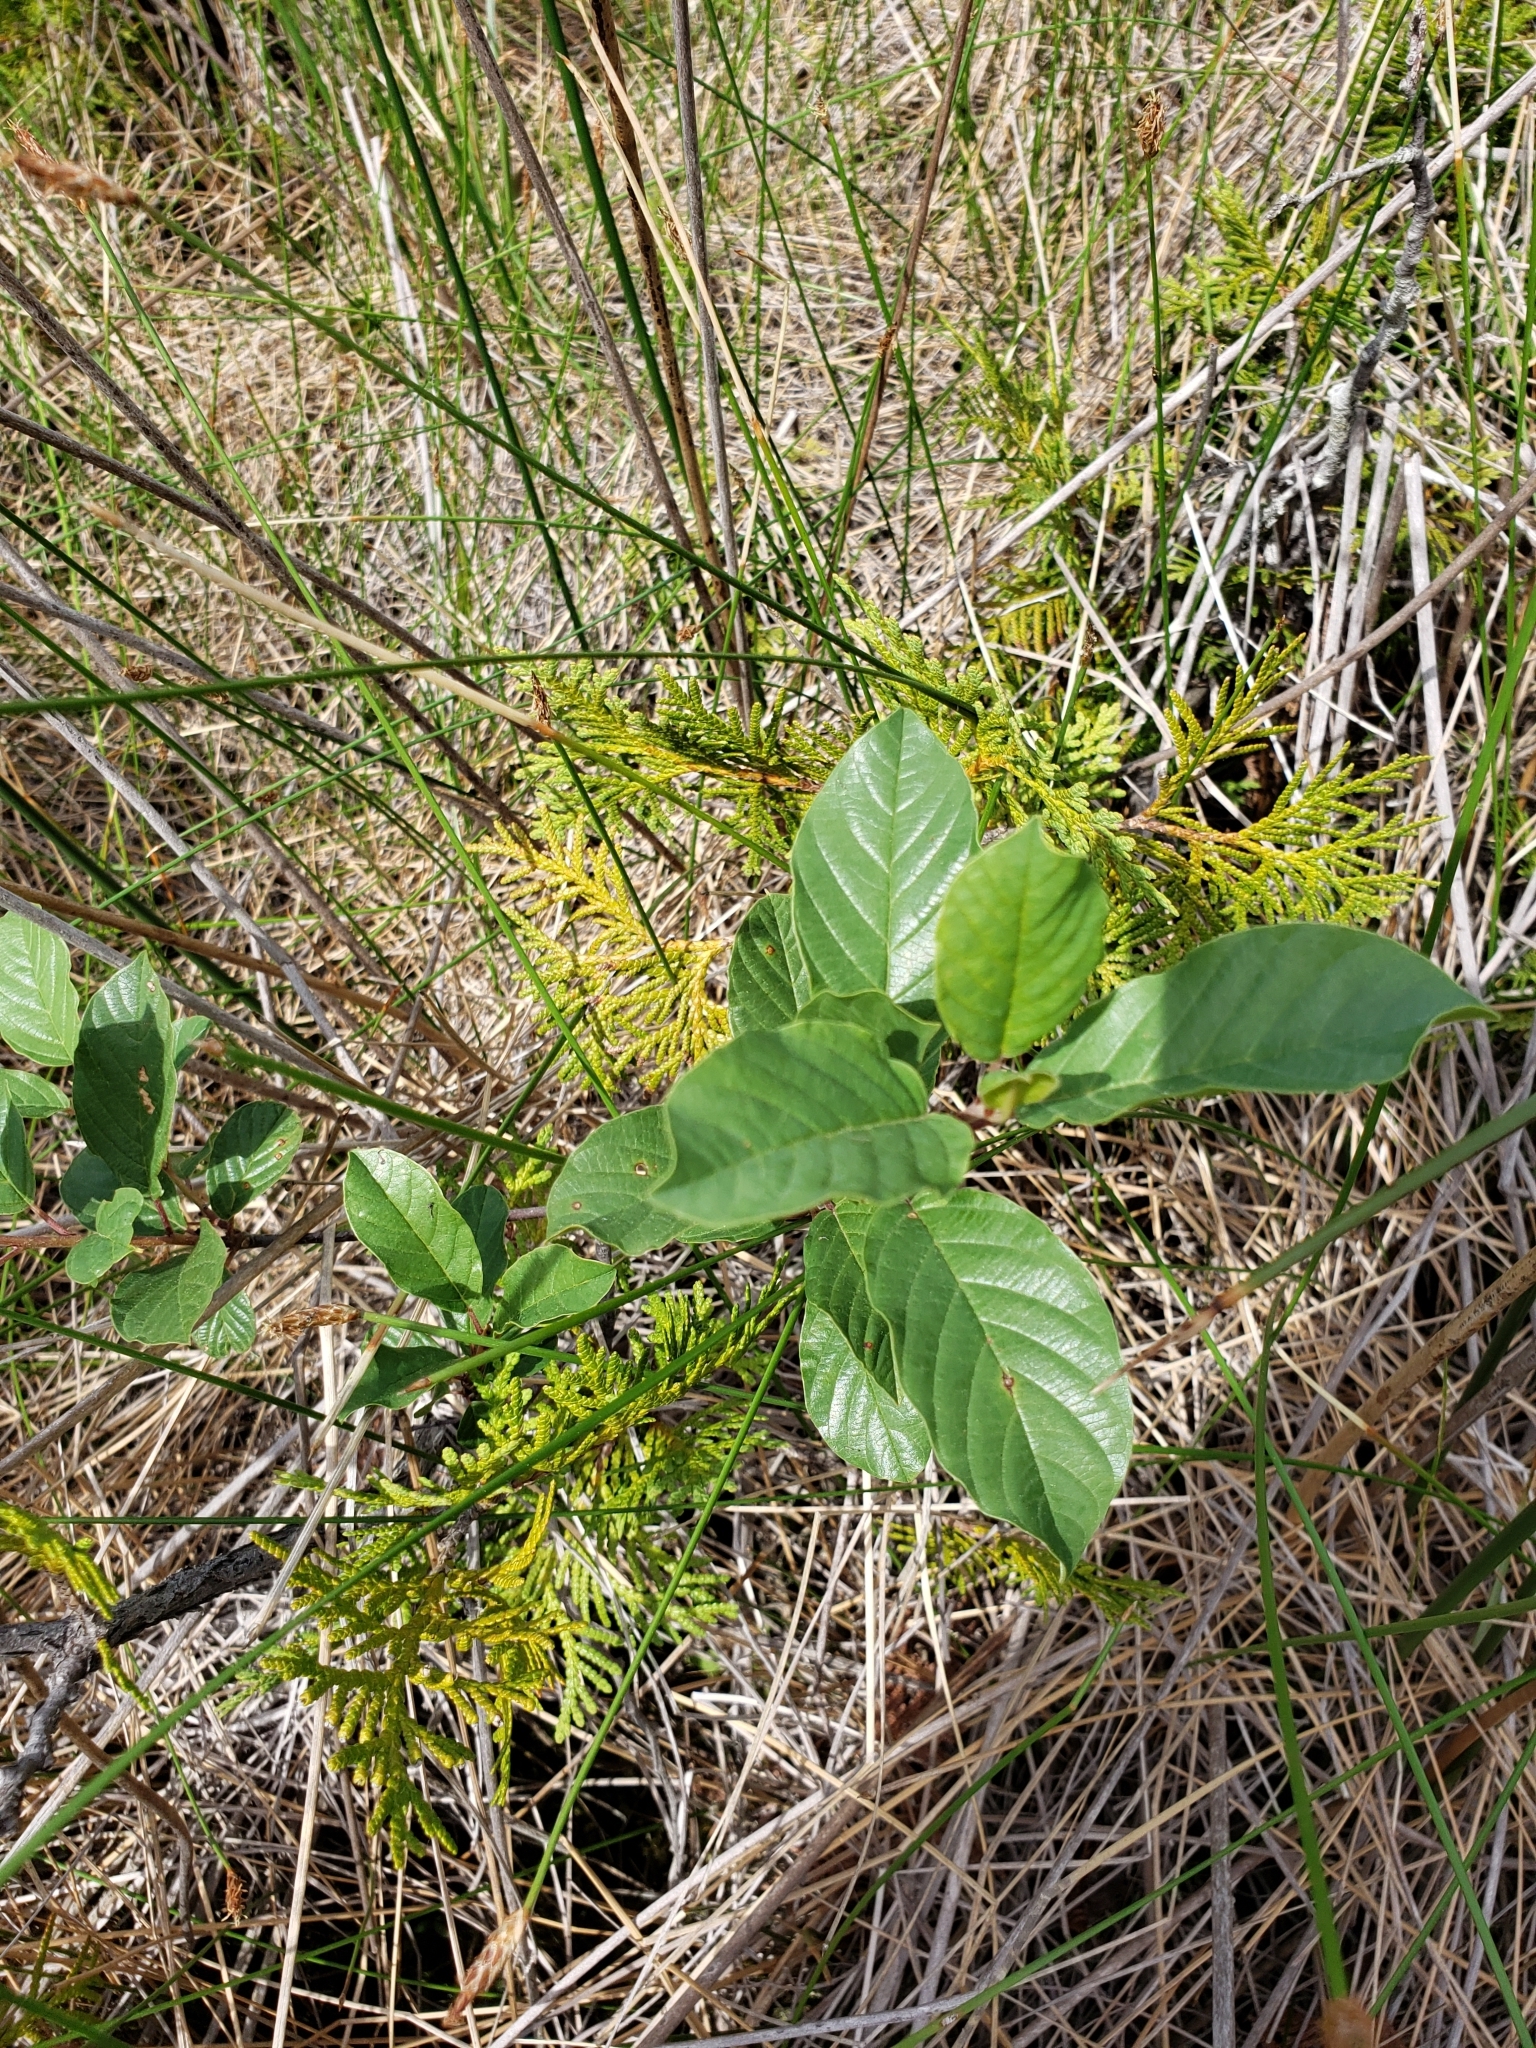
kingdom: Plantae
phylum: Tracheophyta
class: Magnoliopsida
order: Rosales
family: Rhamnaceae
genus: Frangula
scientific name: Frangula alnus
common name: Alder buckthorn
